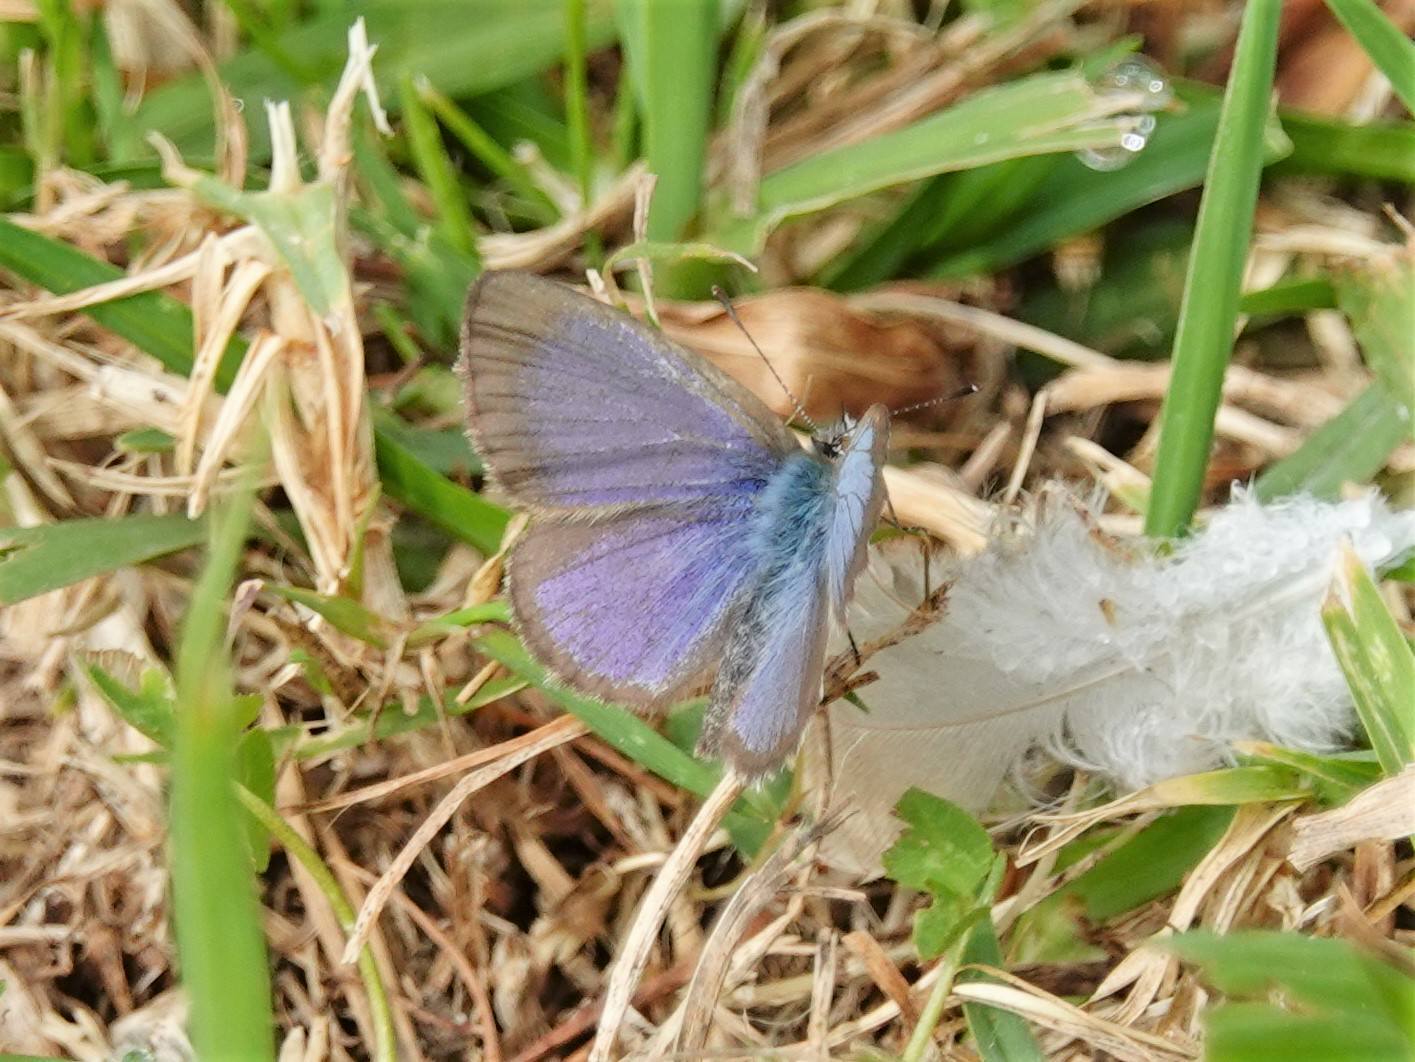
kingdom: Animalia
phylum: Arthropoda
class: Insecta
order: Lepidoptera
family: Lycaenidae
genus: Zizina
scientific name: Zizina labradus
